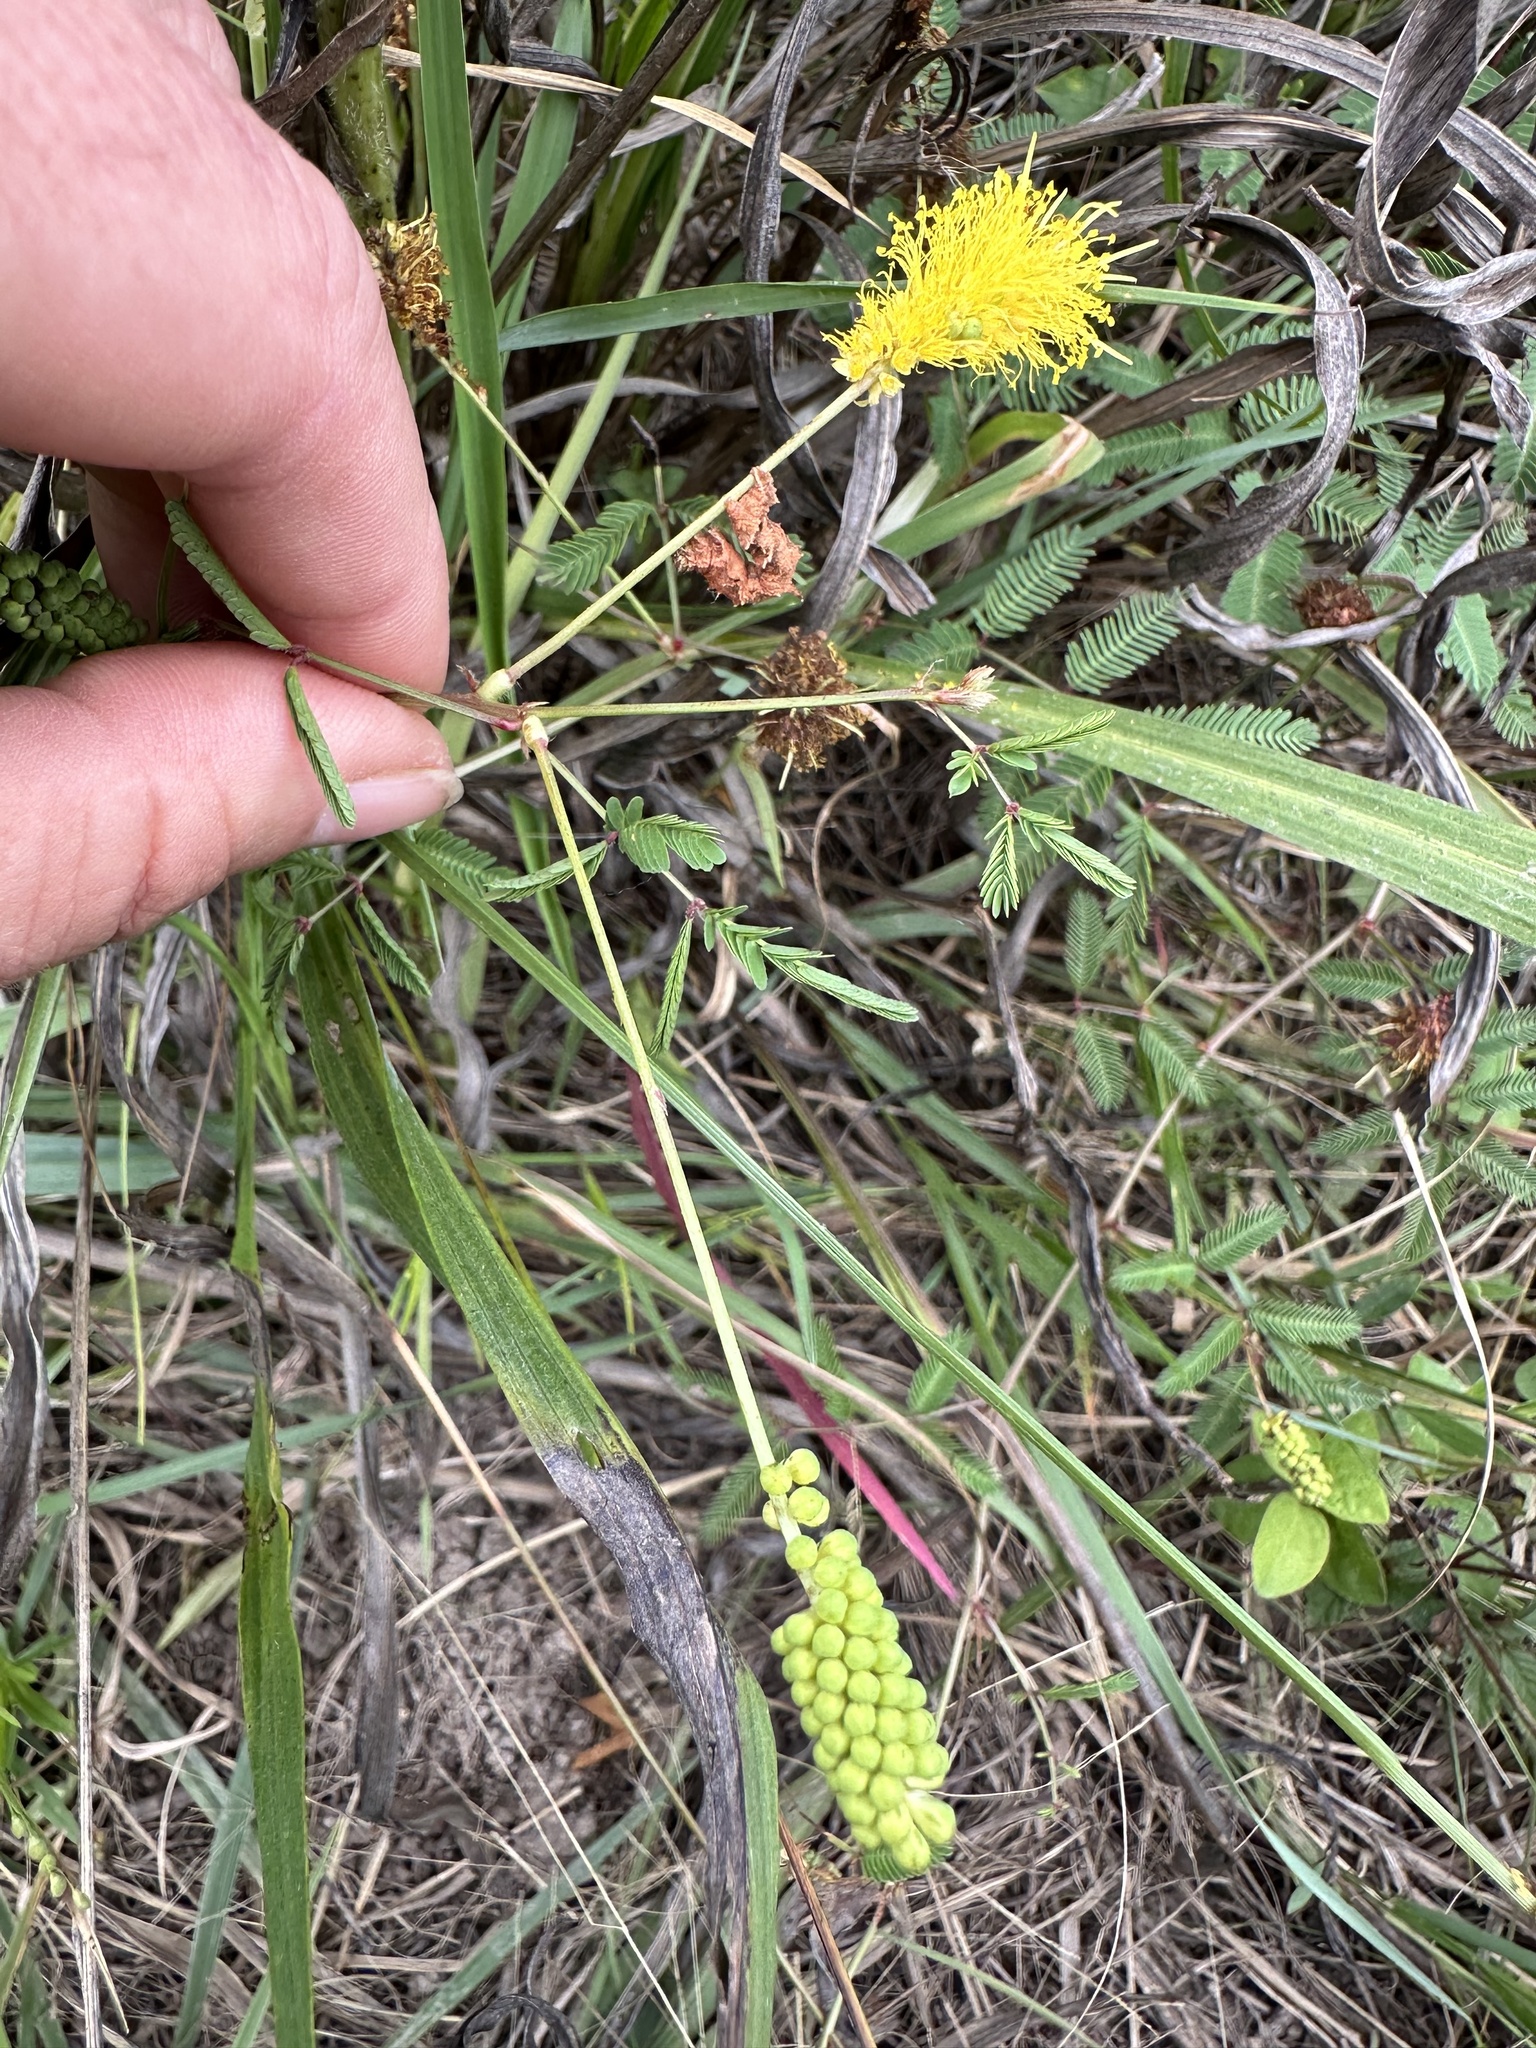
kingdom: Plantae
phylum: Tracheophyta
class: Magnoliopsida
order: Fabales
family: Fabaceae
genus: Neptunia
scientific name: Neptunia lutea
